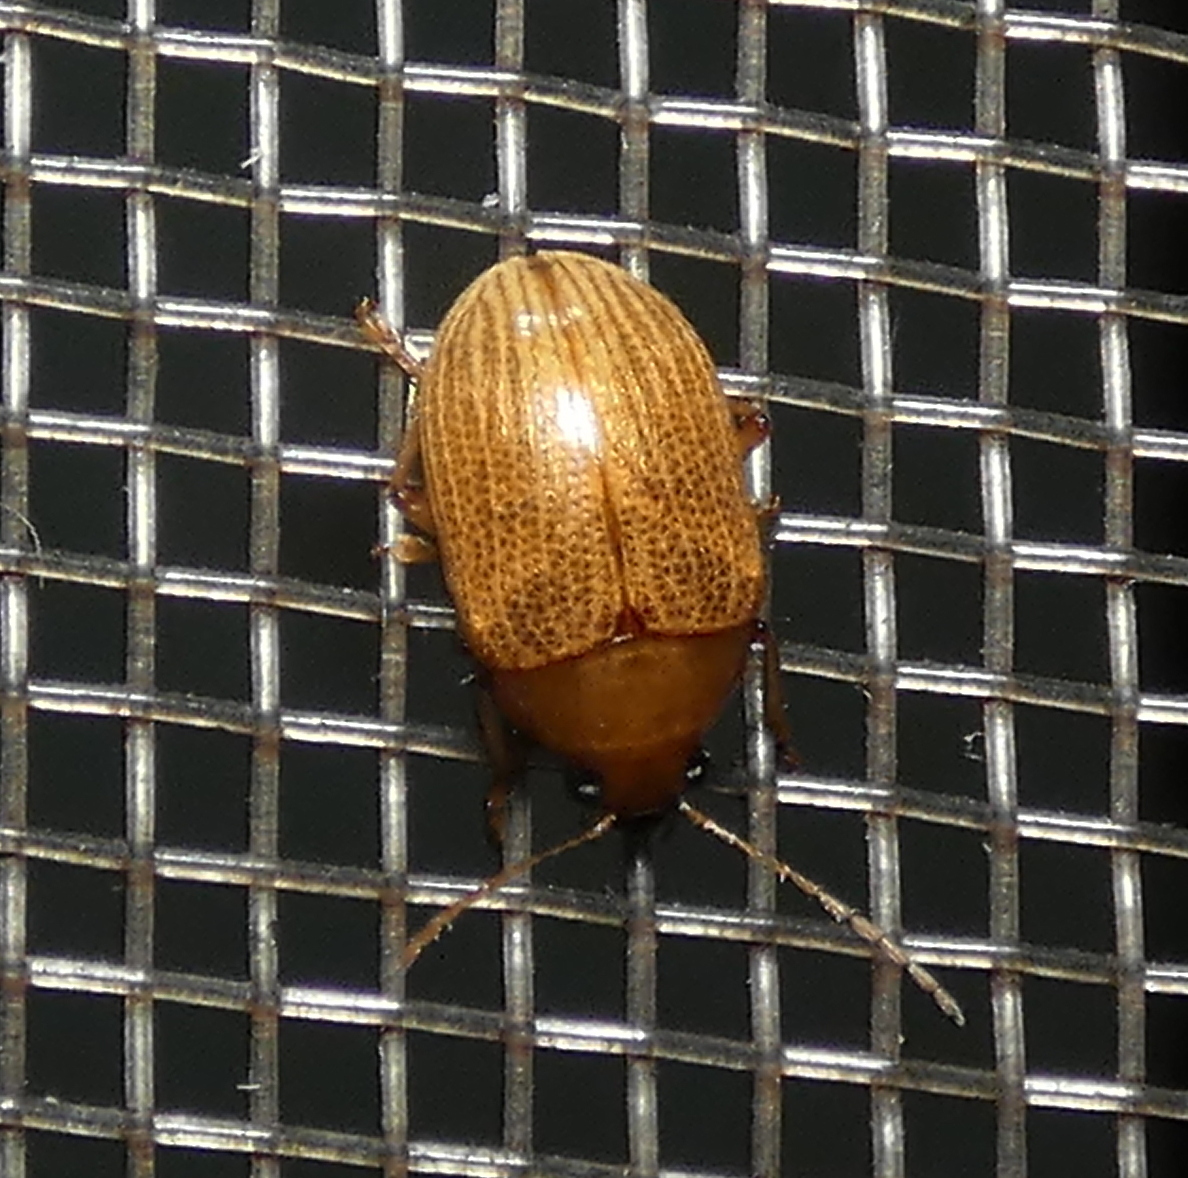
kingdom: Animalia
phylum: Arthropoda
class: Insecta
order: Coleoptera
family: Chrysomelidae
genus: Anisodera
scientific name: Anisodera ferruginea
